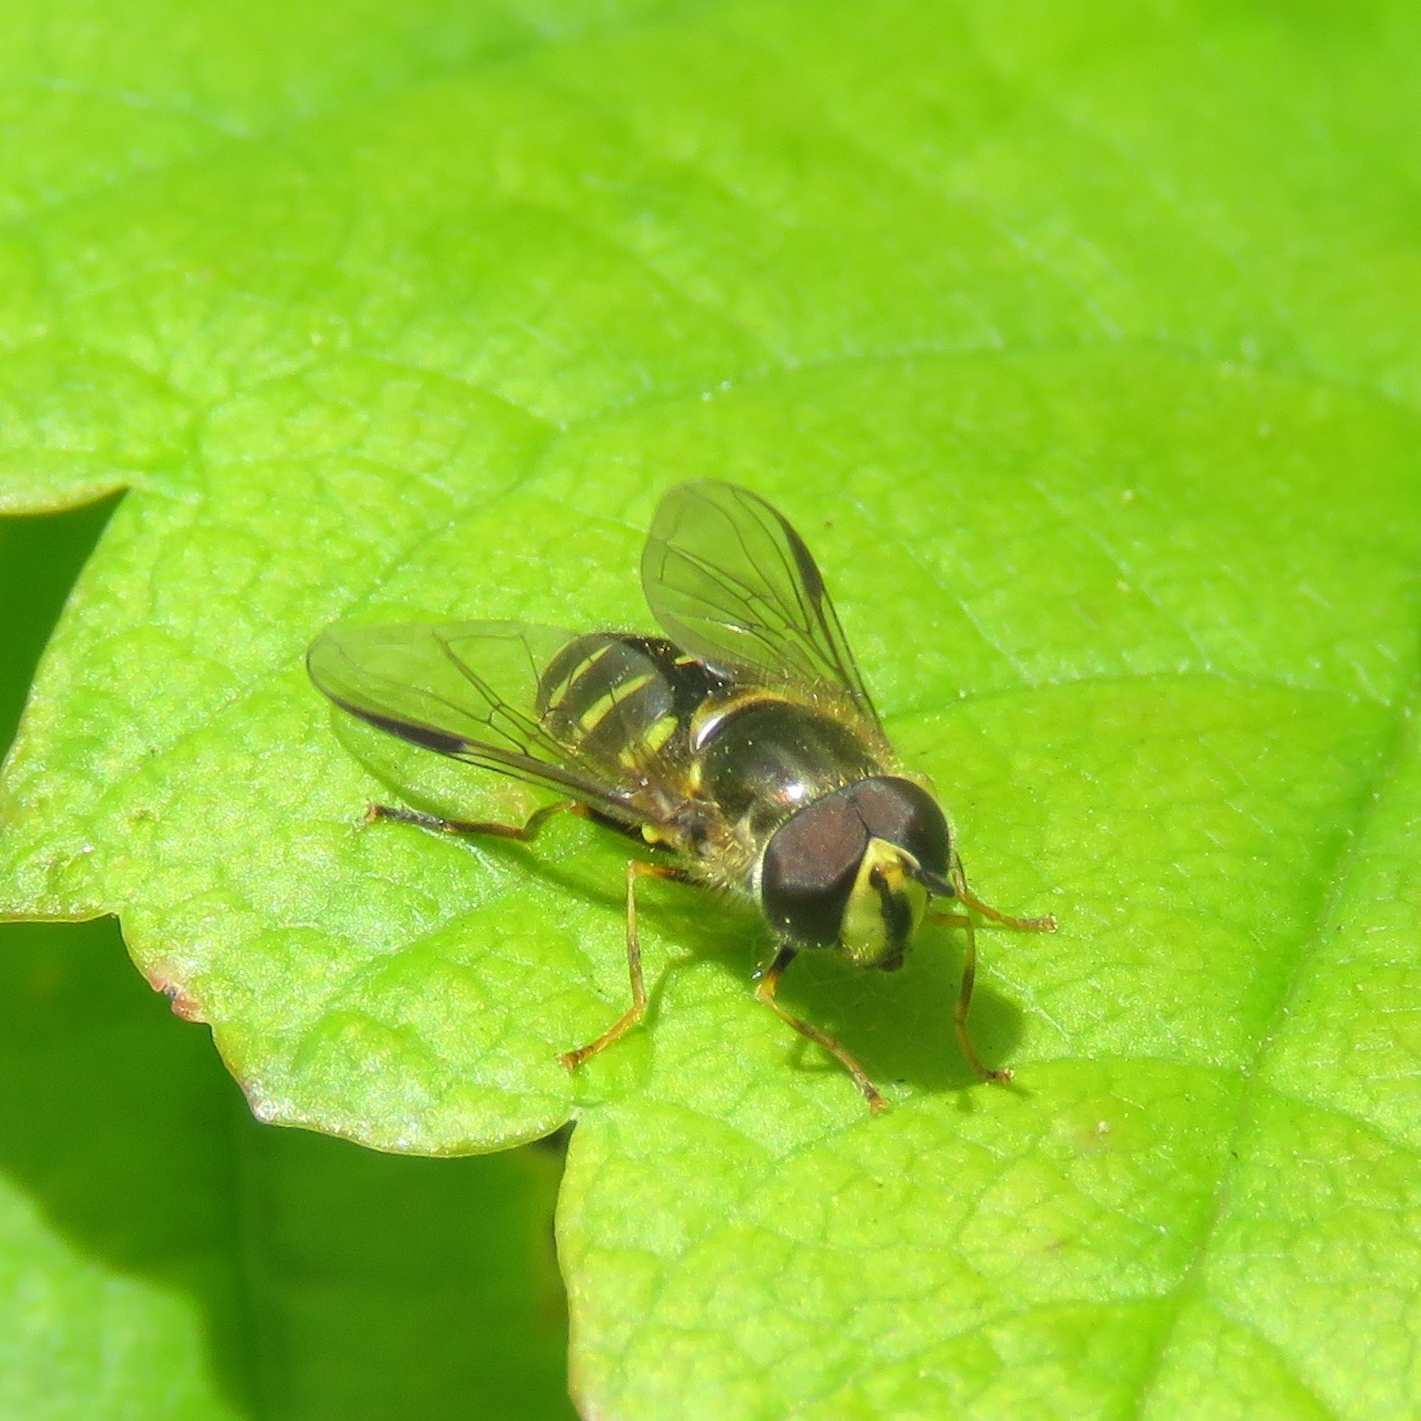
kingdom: Animalia
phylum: Arthropoda
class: Insecta
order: Diptera
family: Syrphidae
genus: Dasysyrphus
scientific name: Dasysyrphus albostriatus
